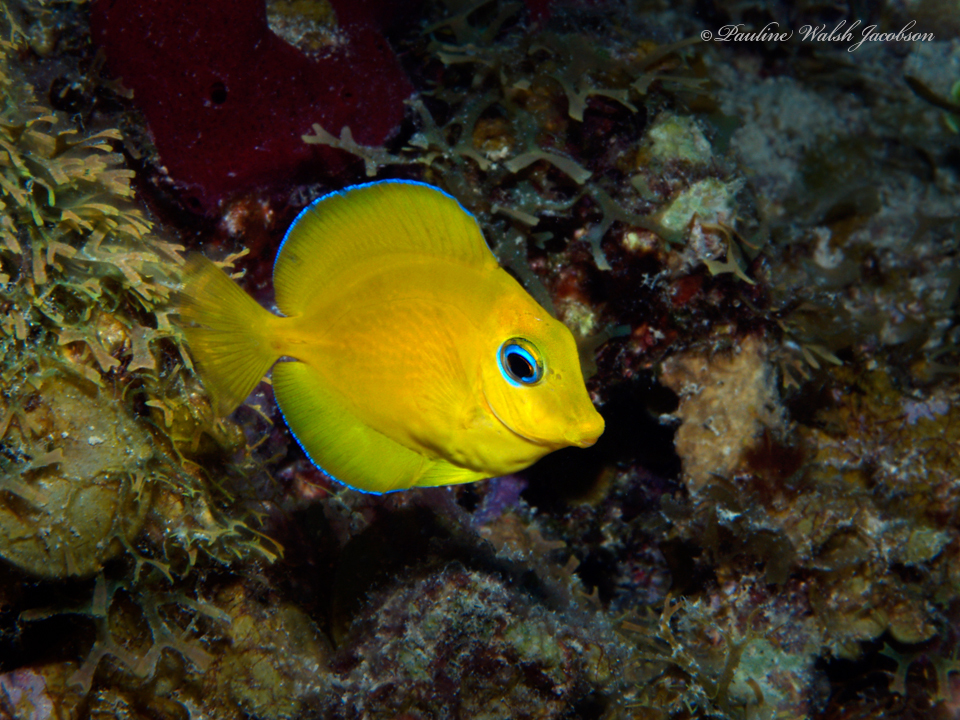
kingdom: Animalia
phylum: Chordata
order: Perciformes
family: Acanthuridae
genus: Acanthurus
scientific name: Acanthurus coeruleus
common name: Blue tang
